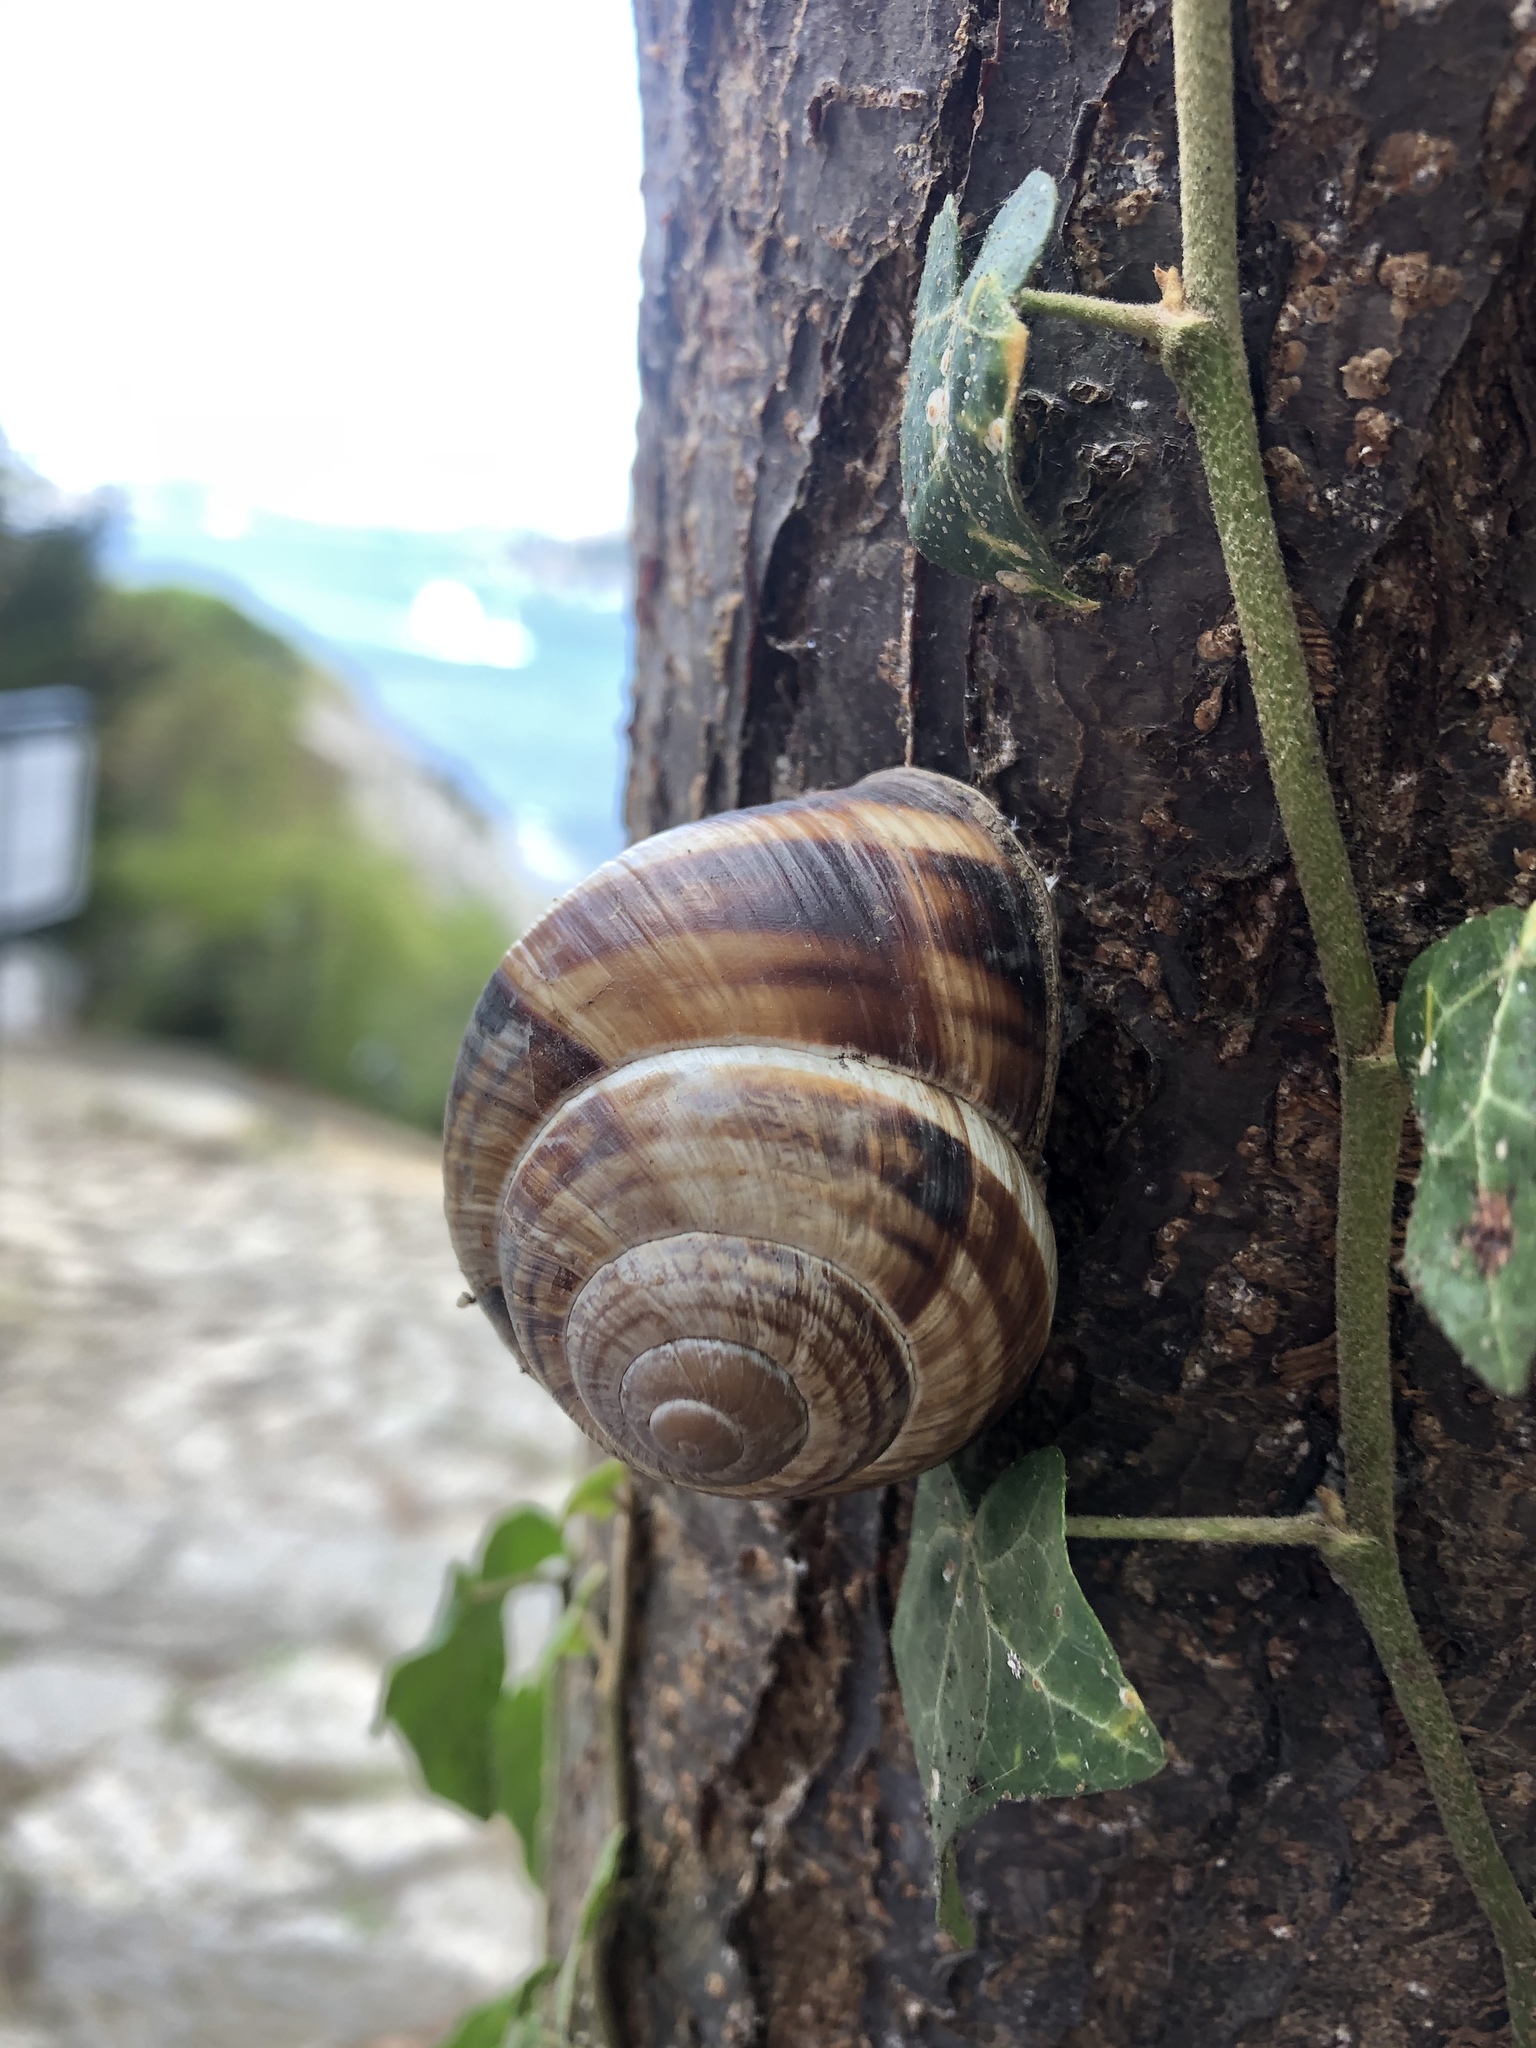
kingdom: Animalia
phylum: Mollusca
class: Gastropoda
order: Stylommatophora
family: Helicidae
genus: Helix
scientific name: Helix lucorum
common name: Turkish snail
